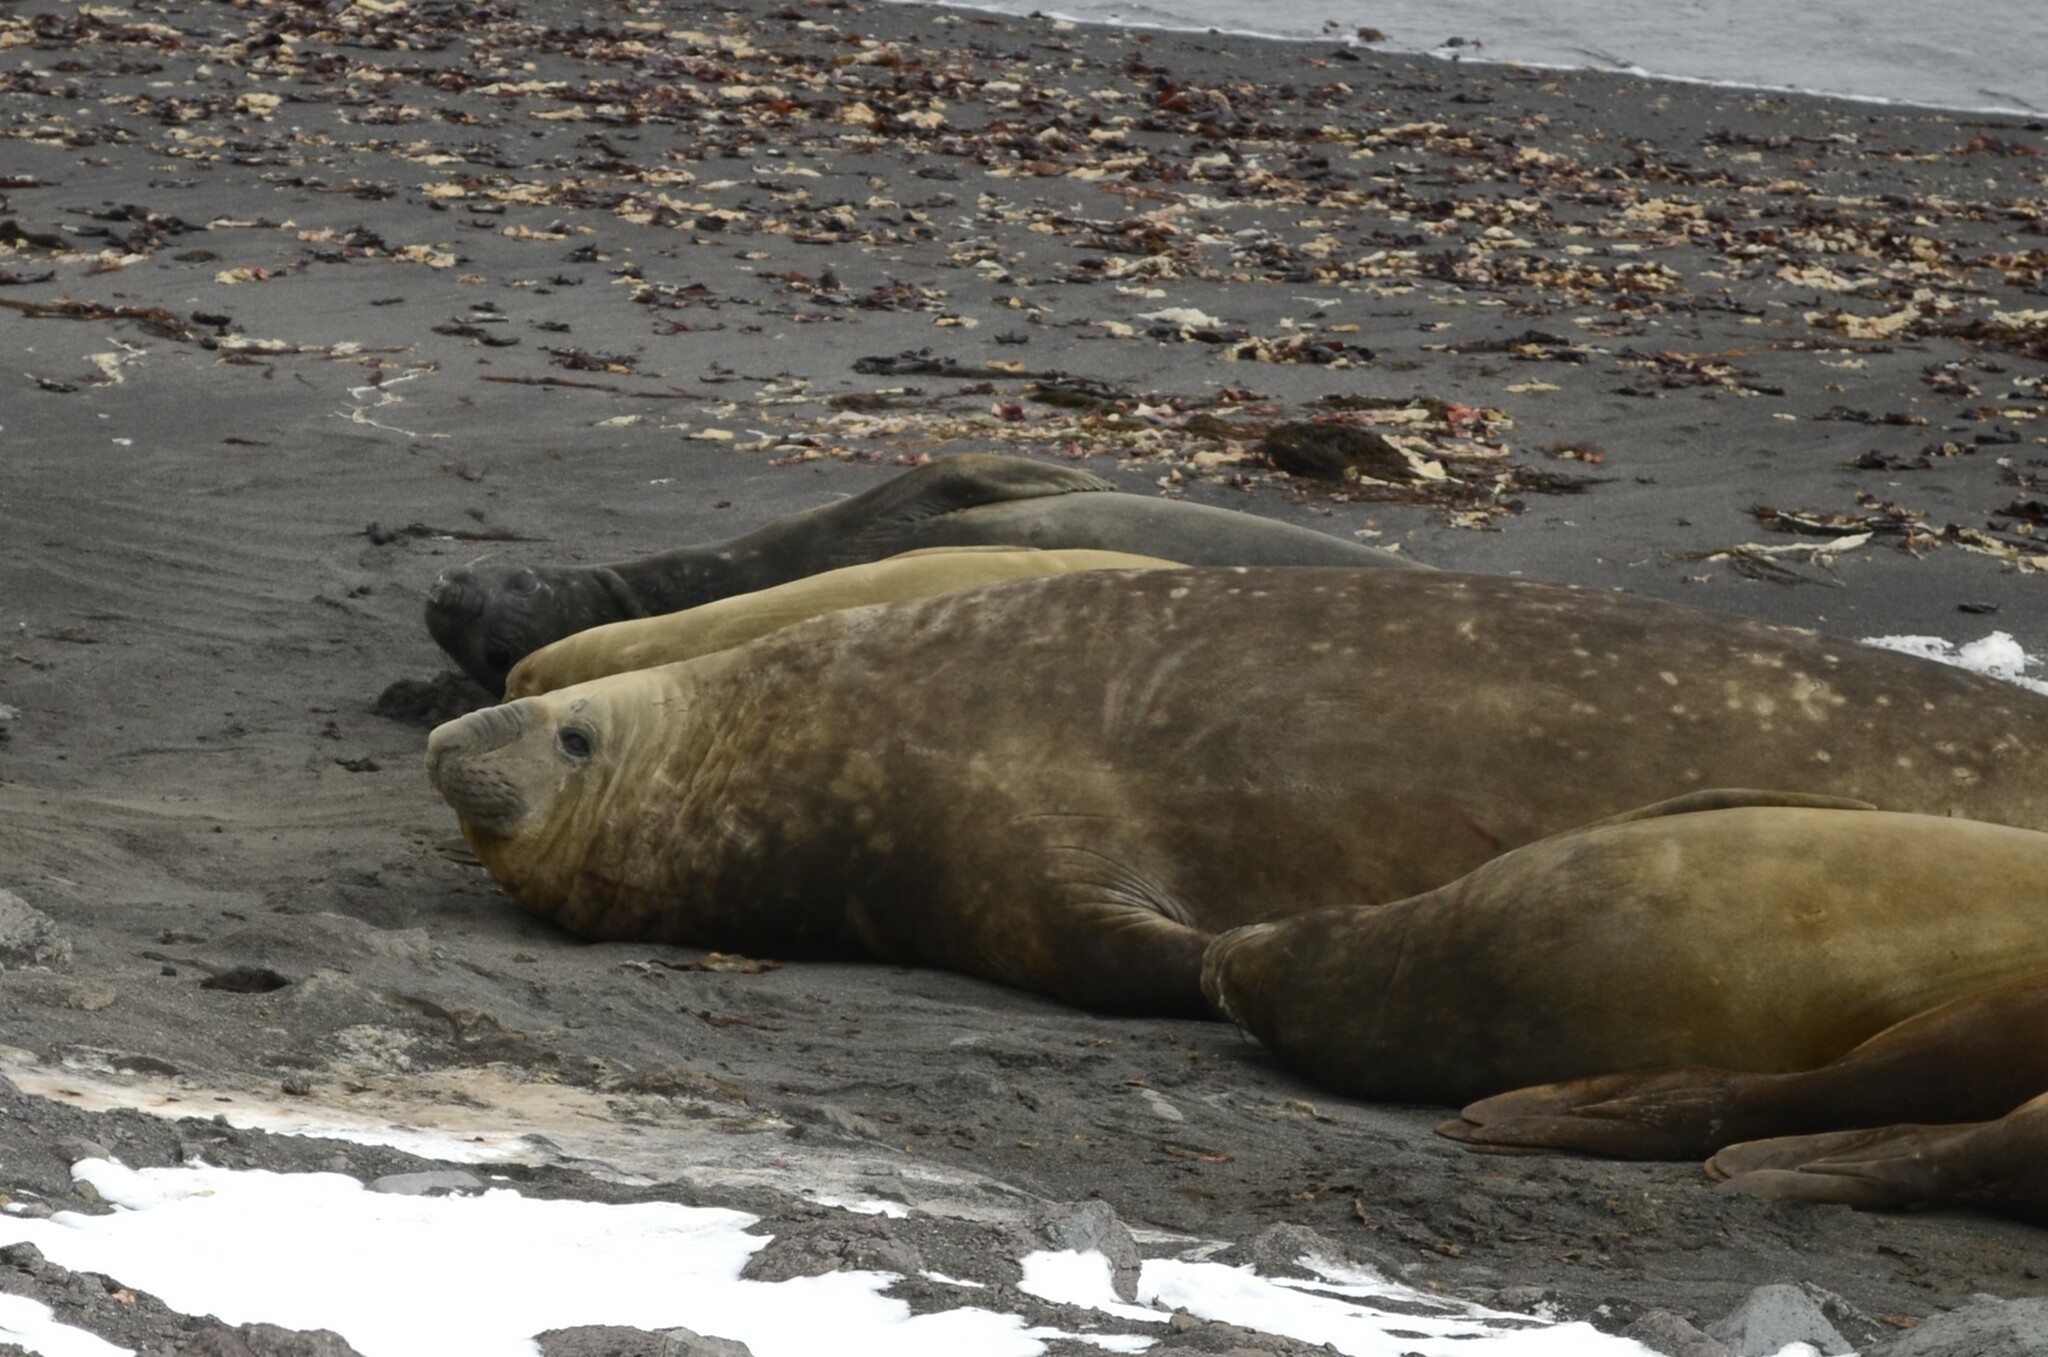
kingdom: Animalia
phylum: Chordata
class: Mammalia
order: Carnivora
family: Phocidae
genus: Mirounga
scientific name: Mirounga leonina
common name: Southern elephant seal
